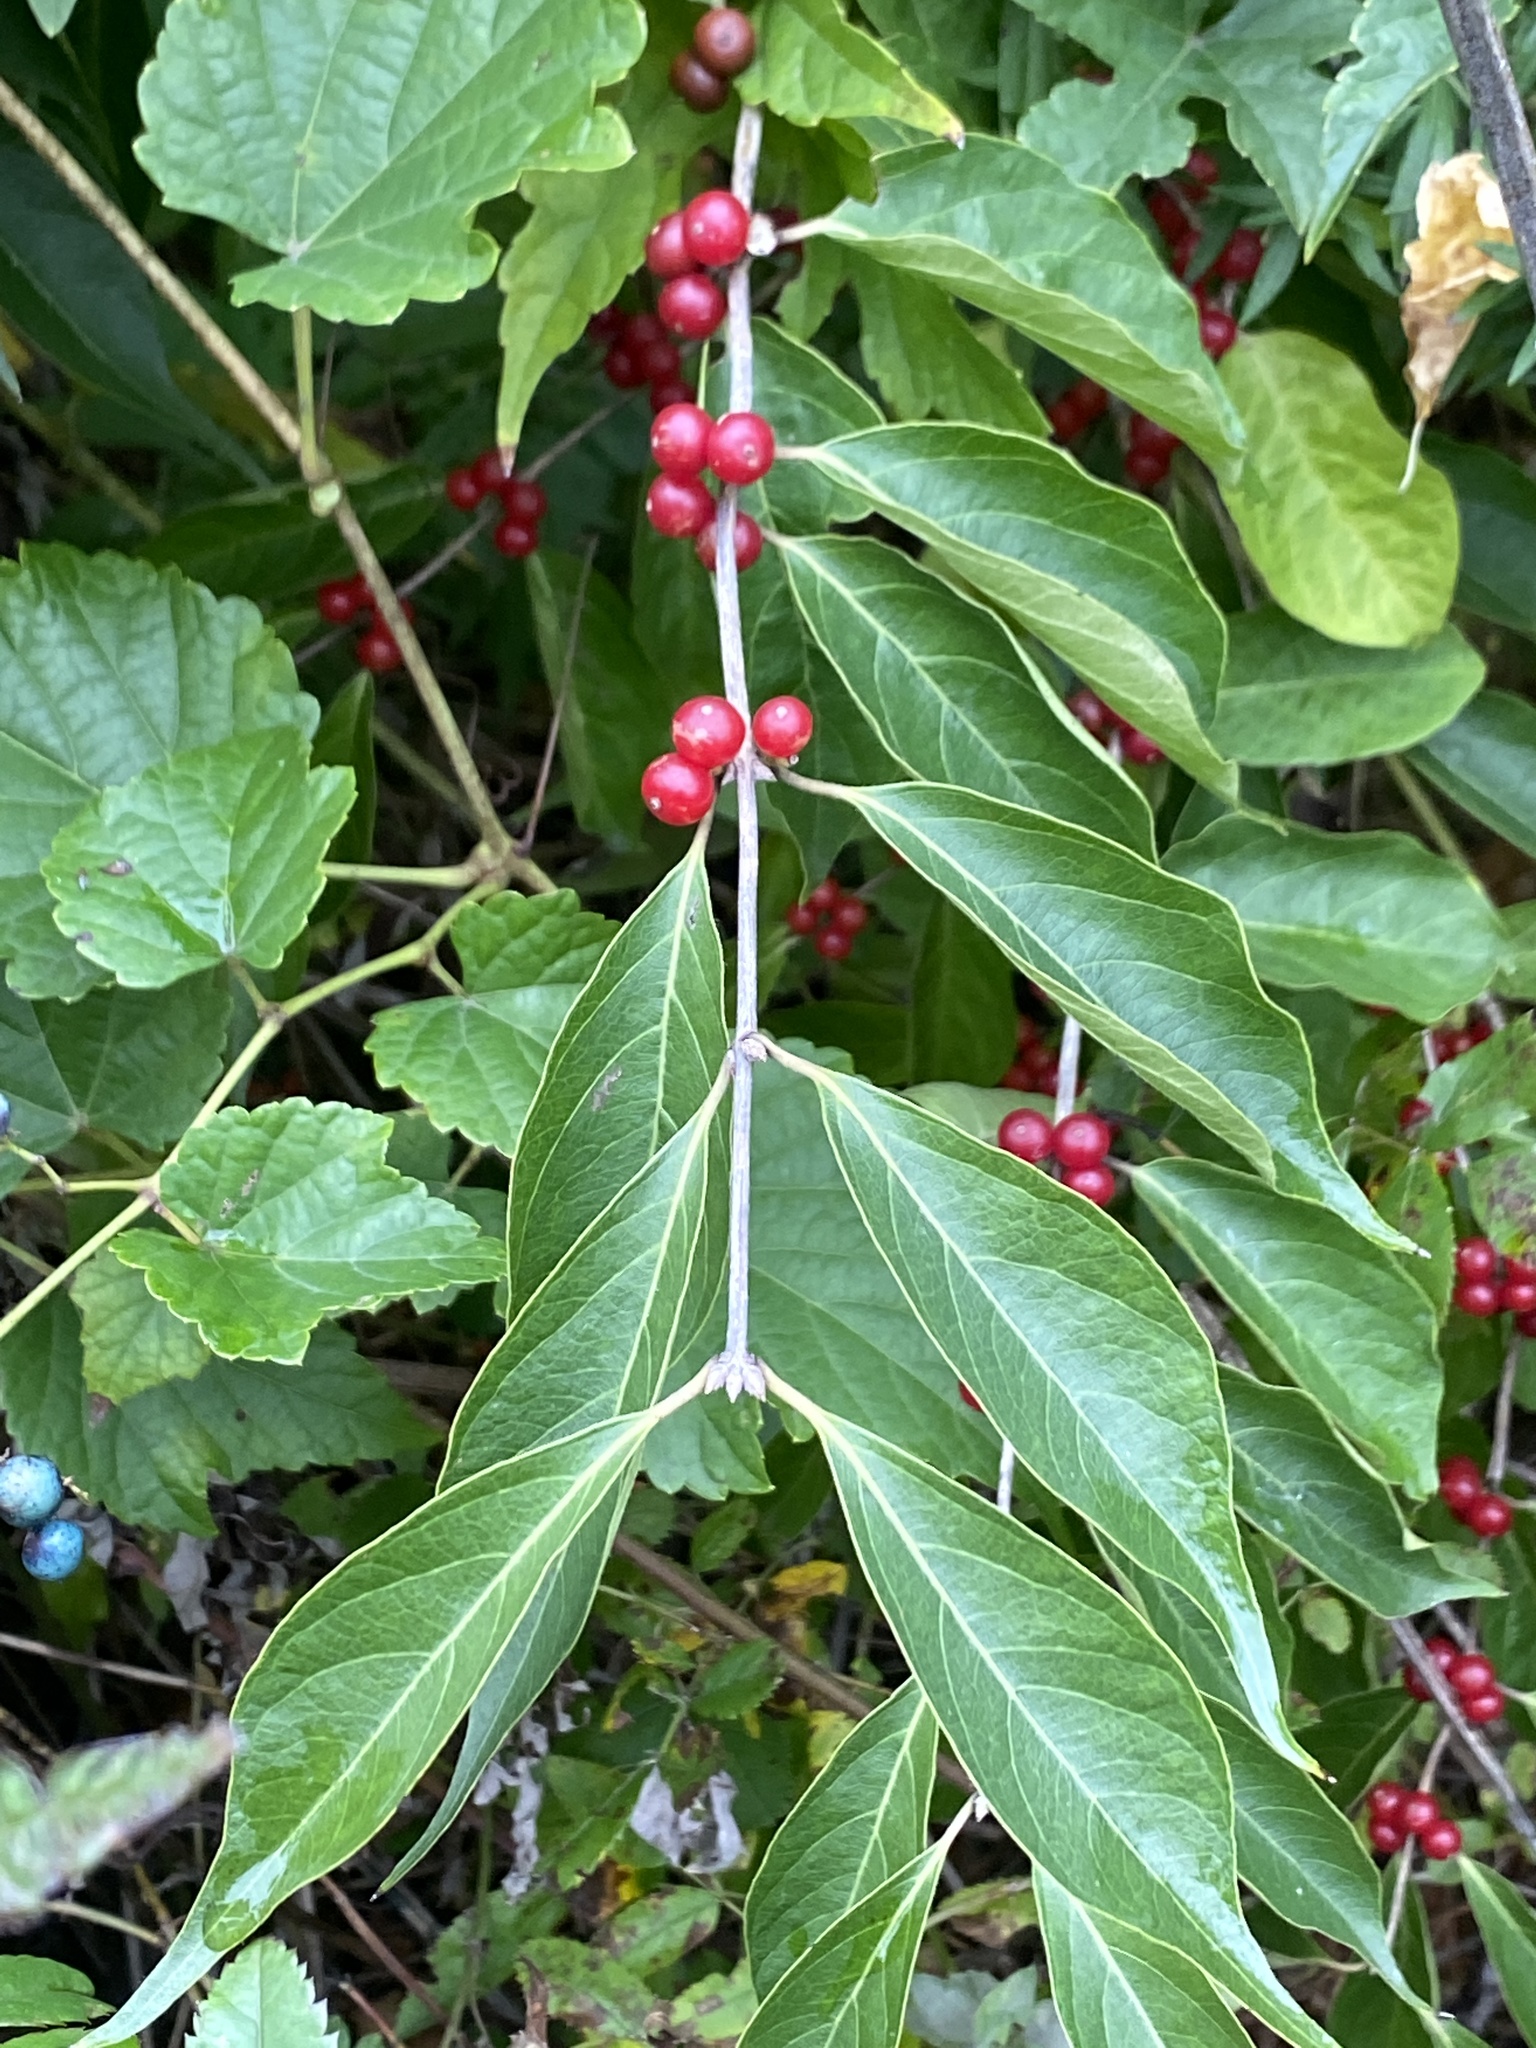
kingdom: Plantae
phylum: Tracheophyta
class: Magnoliopsida
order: Dipsacales
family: Caprifoliaceae
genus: Lonicera
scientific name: Lonicera maackii
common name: Amur honeysuckle
